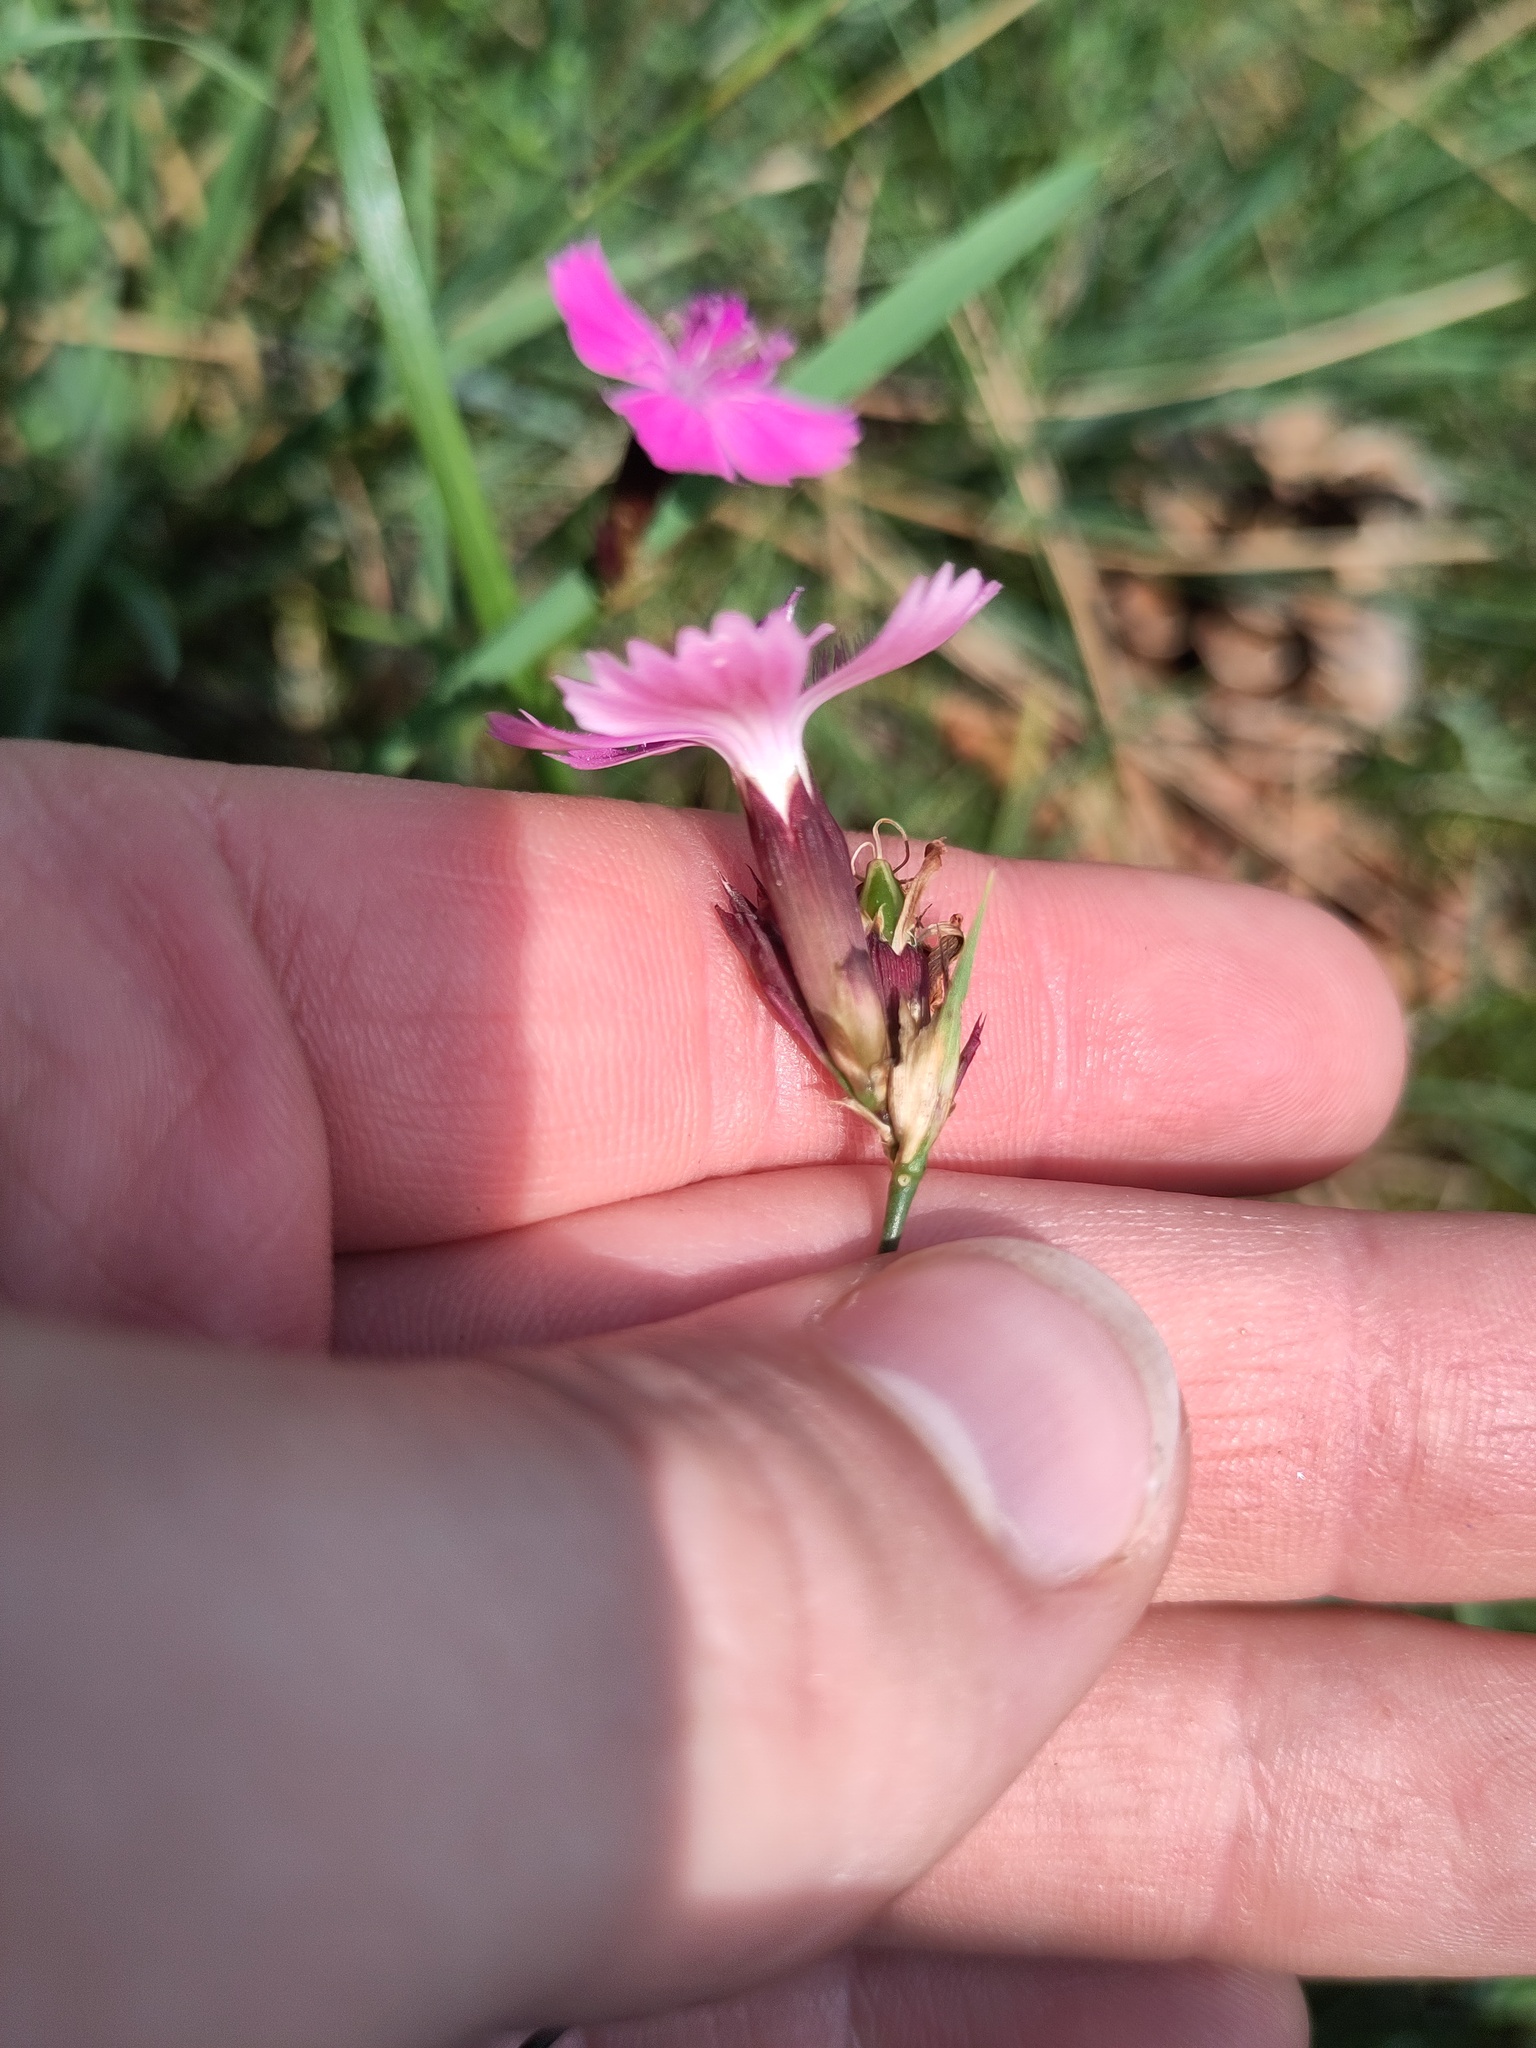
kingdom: Plantae
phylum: Tracheophyta
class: Magnoliopsida
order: Caryophyllales
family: Caryophyllaceae
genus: Dianthus
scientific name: Dianthus carthusianorum
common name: Carthusian pink
